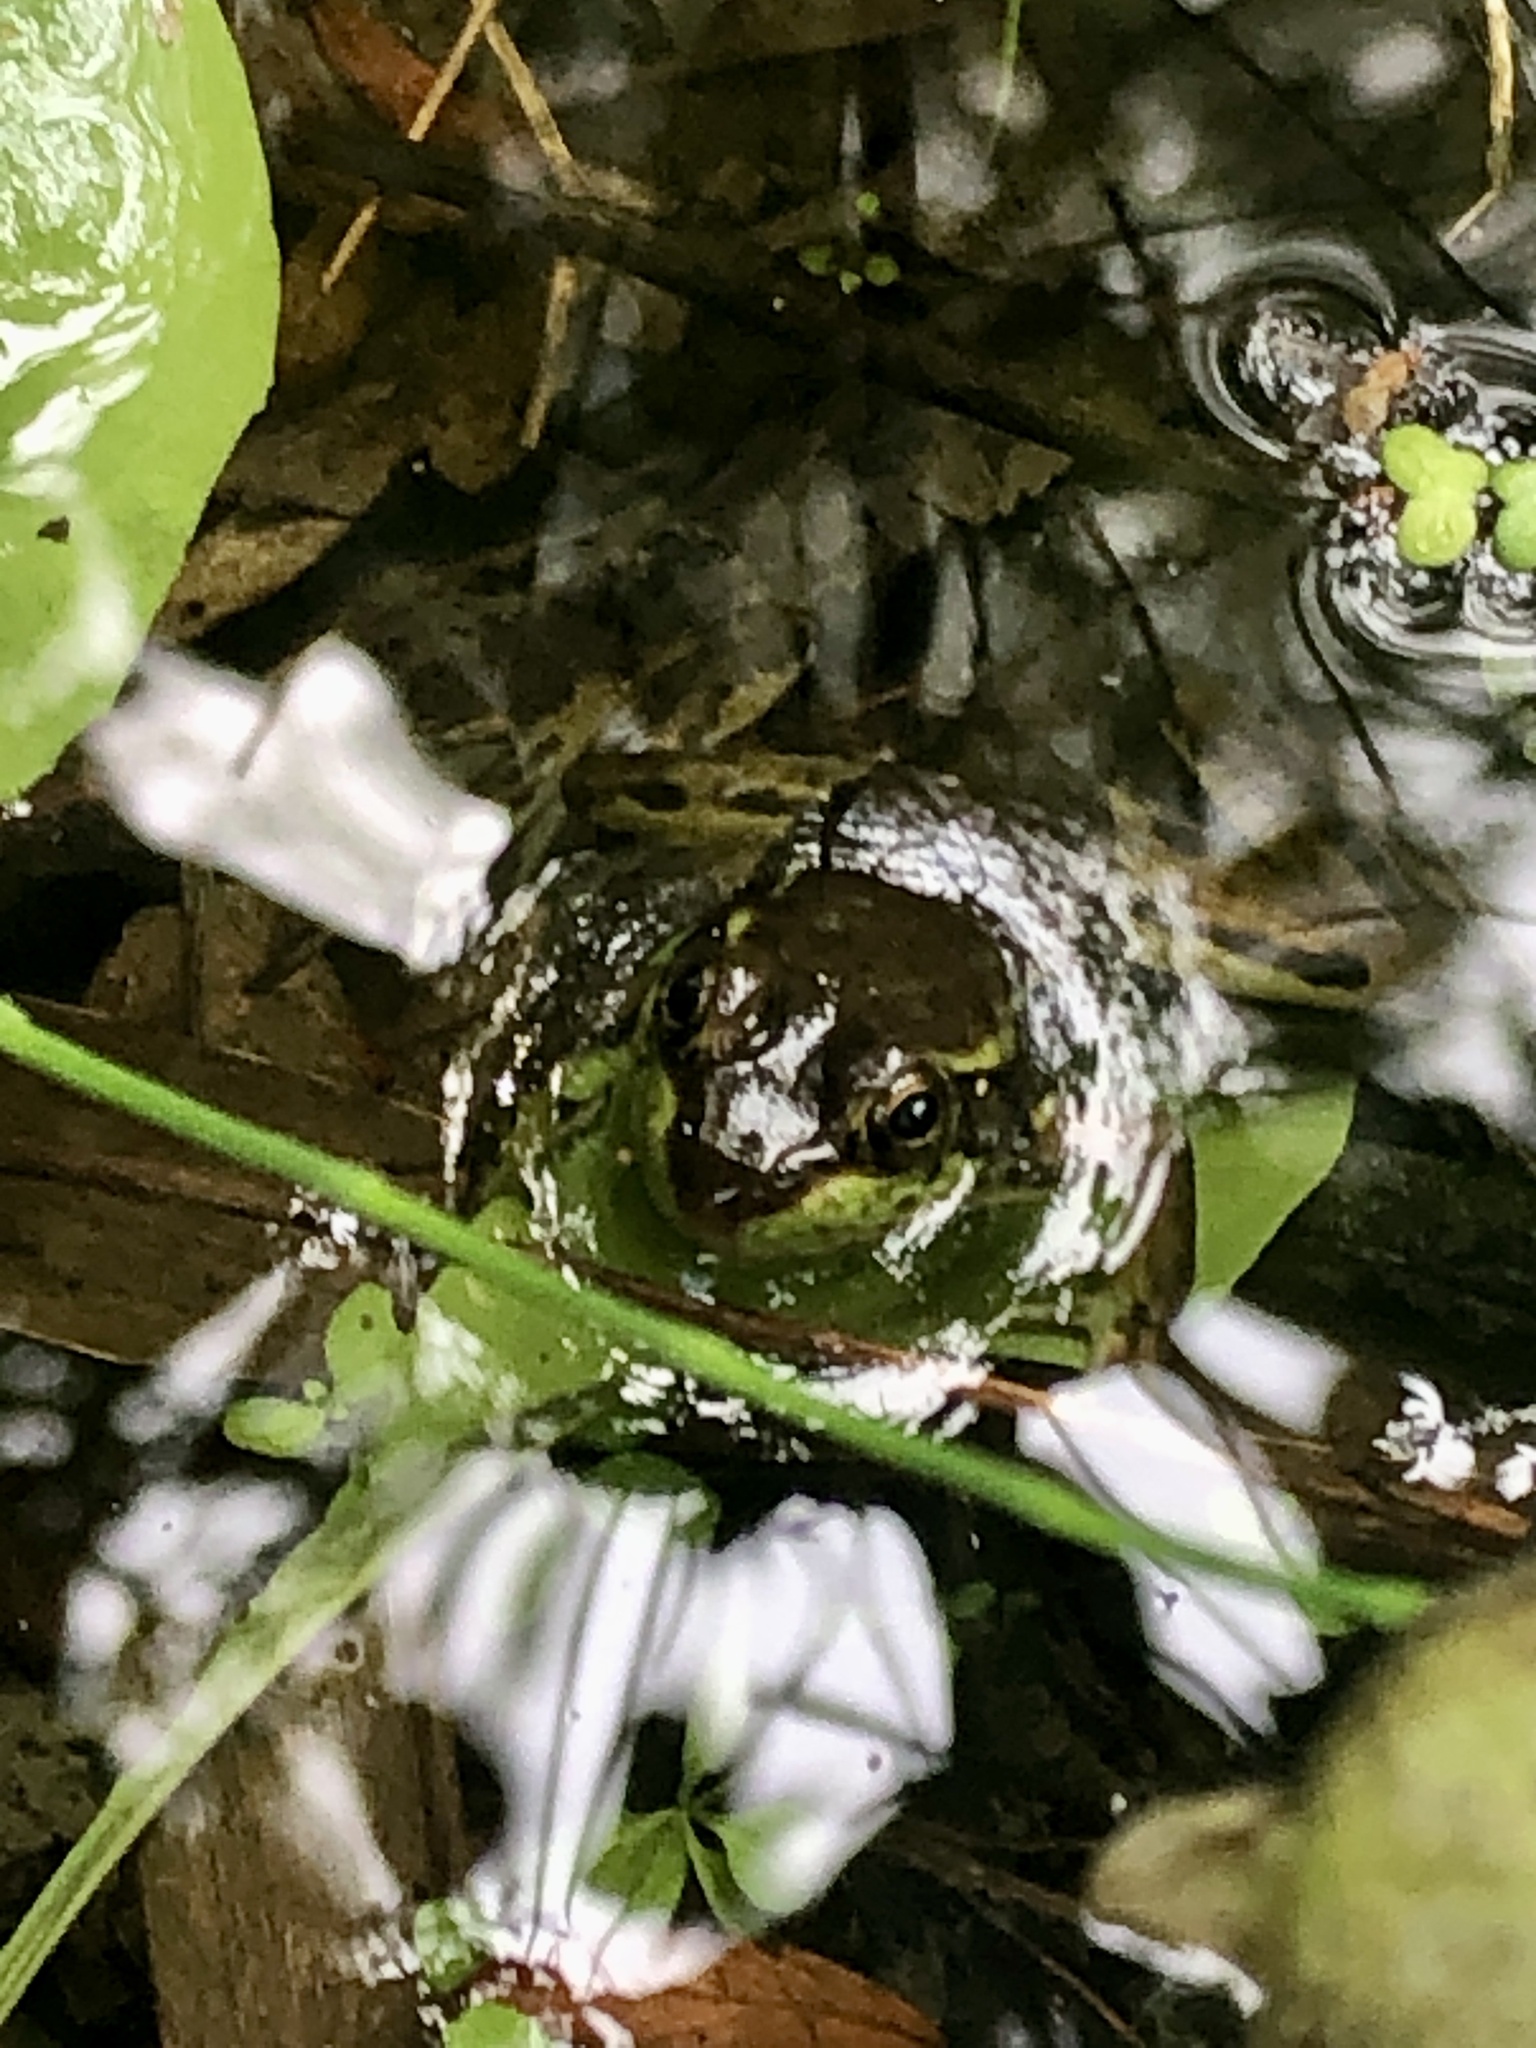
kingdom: Animalia
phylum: Chordata
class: Amphibia
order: Anura
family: Ranidae
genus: Lithobates
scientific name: Lithobates septentrionalis
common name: Mink frog
